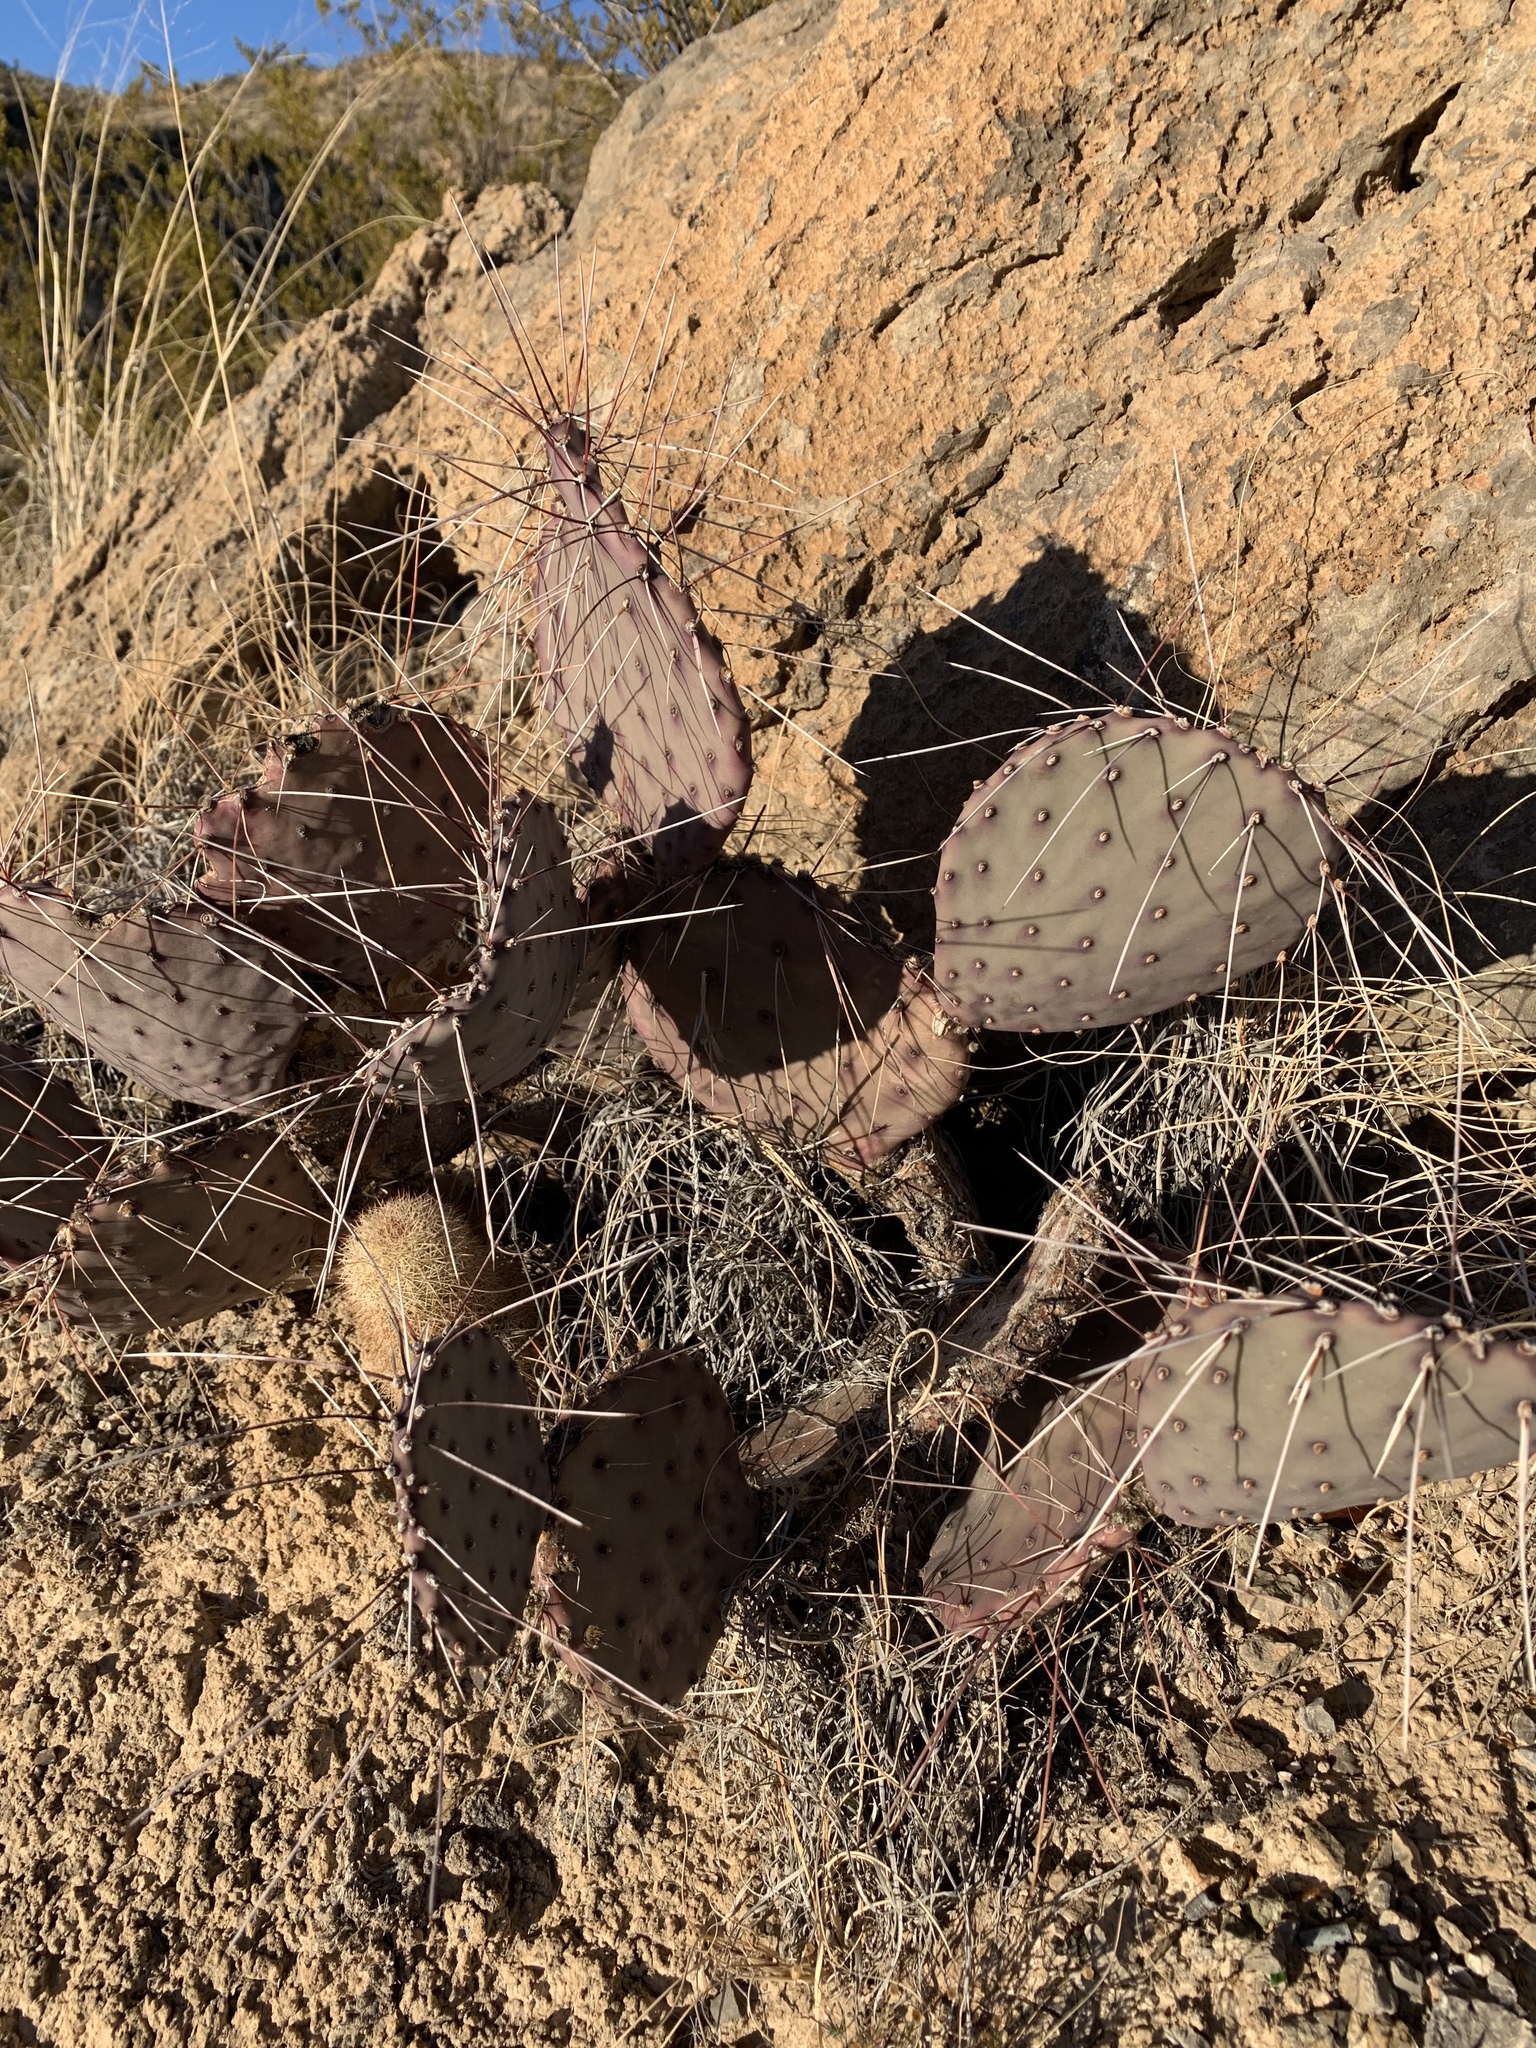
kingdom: Plantae
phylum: Tracheophyta
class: Magnoliopsida
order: Caryophyllales
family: Cactaceae
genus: Opuntia
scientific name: Opuntia macrocentra
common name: Purple prickly-pear
